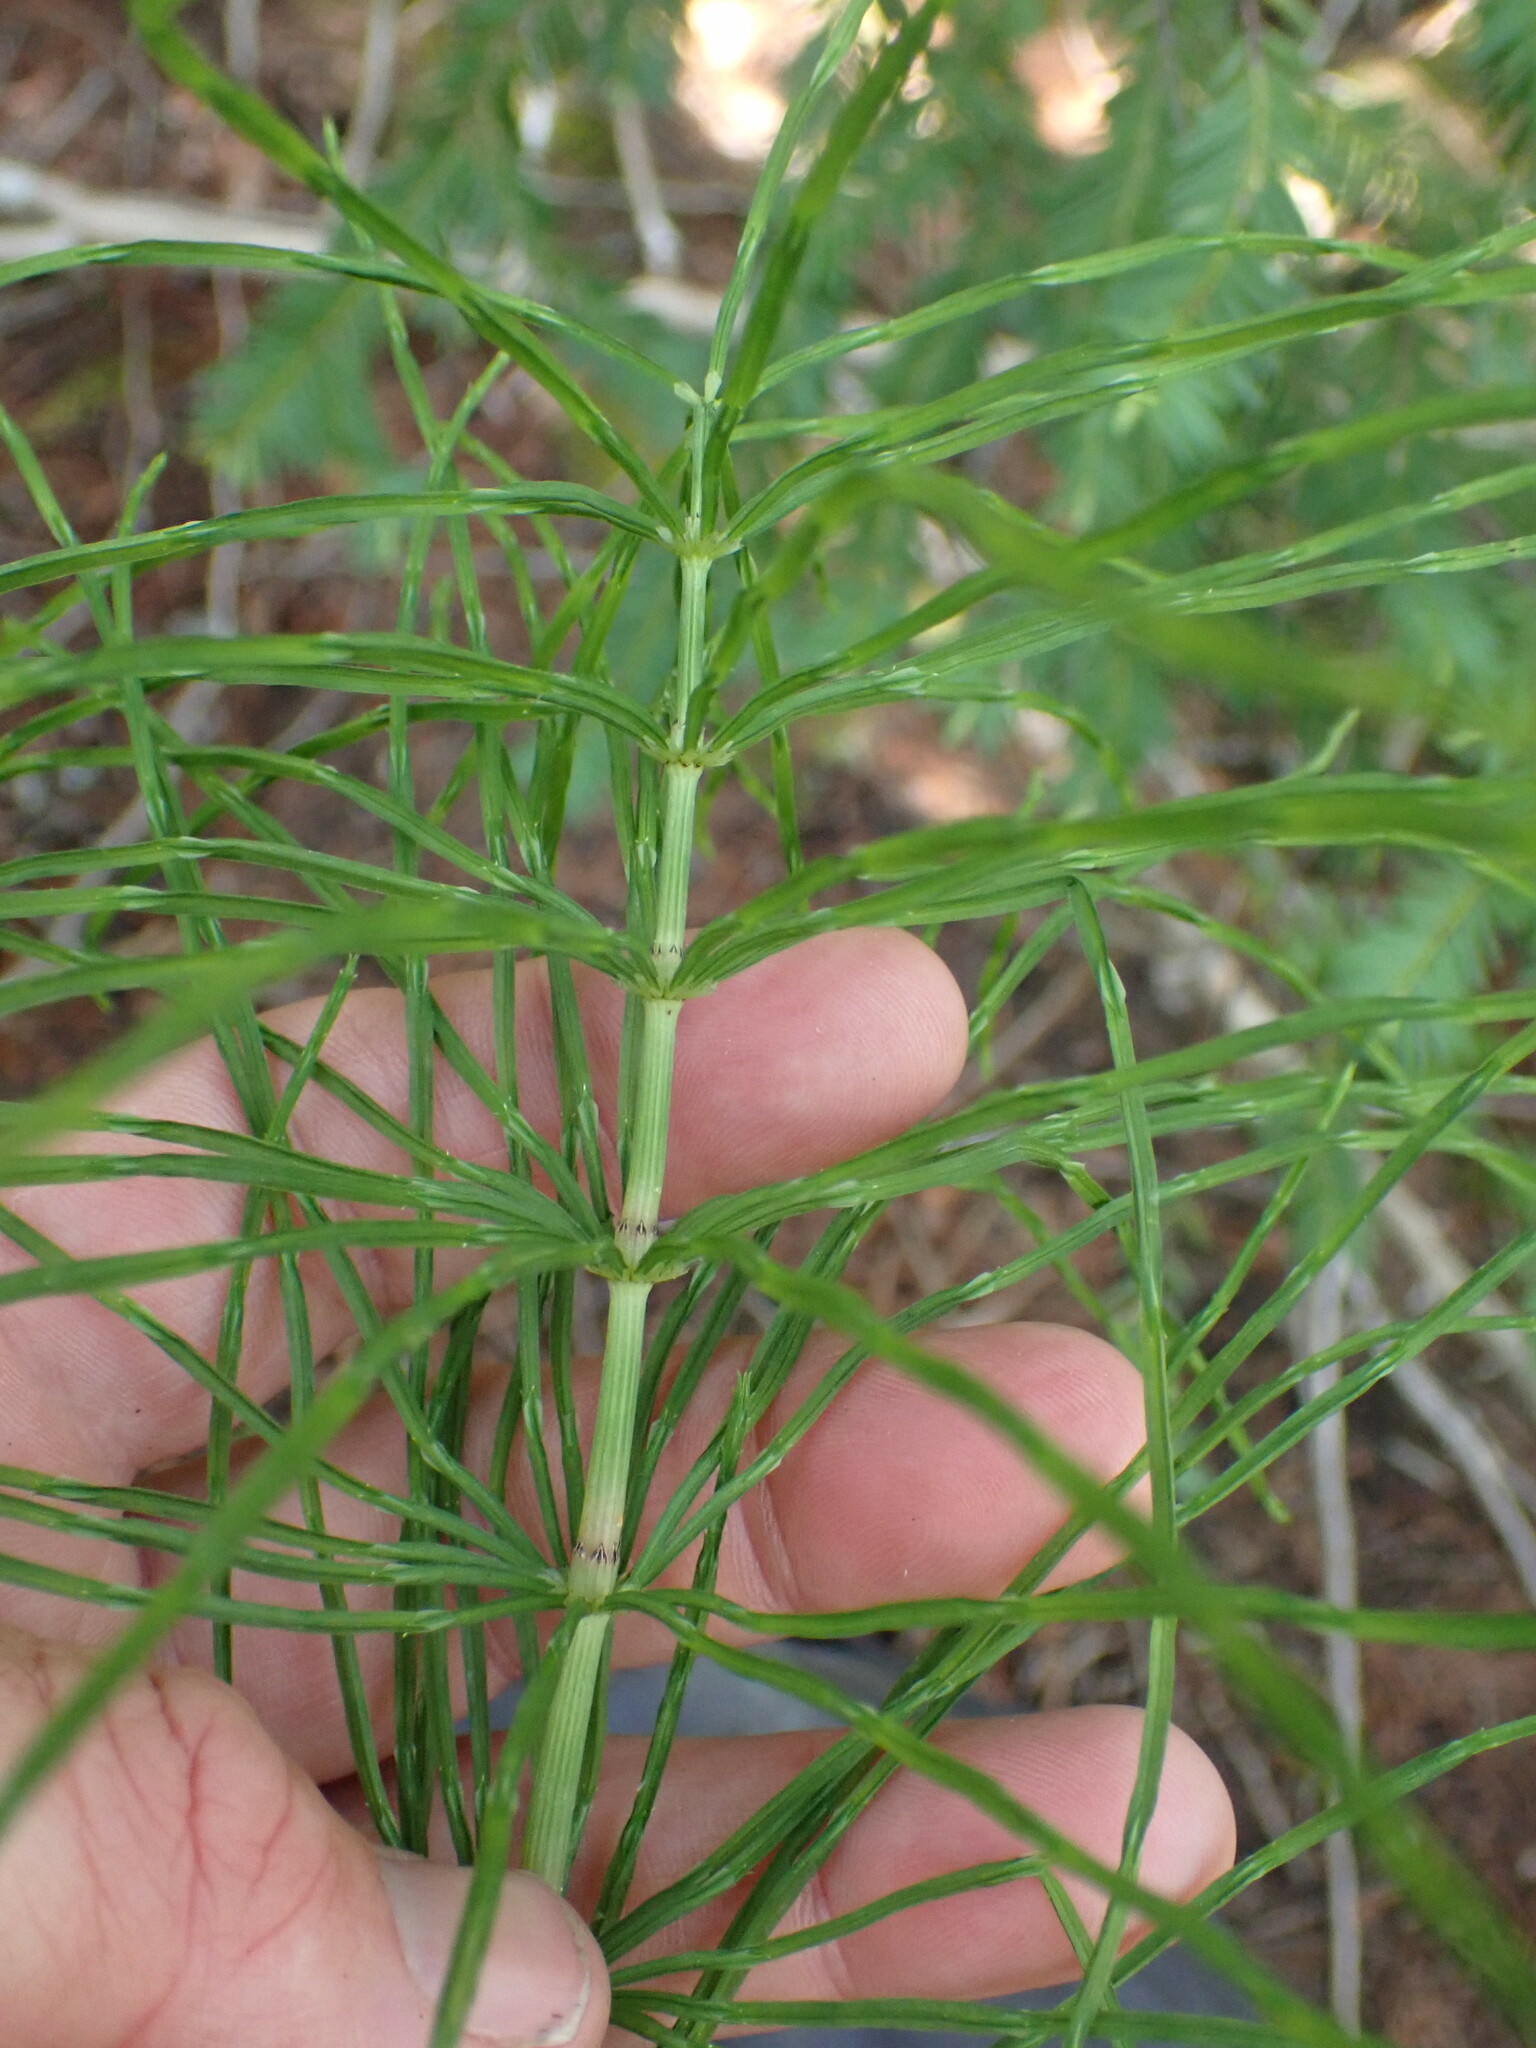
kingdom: Plantae
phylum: Tracheophyta
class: Polypodiopsida
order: Equisetales
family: Equisetaceae
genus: Equisetum
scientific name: Equisetum arvense
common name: Field horsetail
